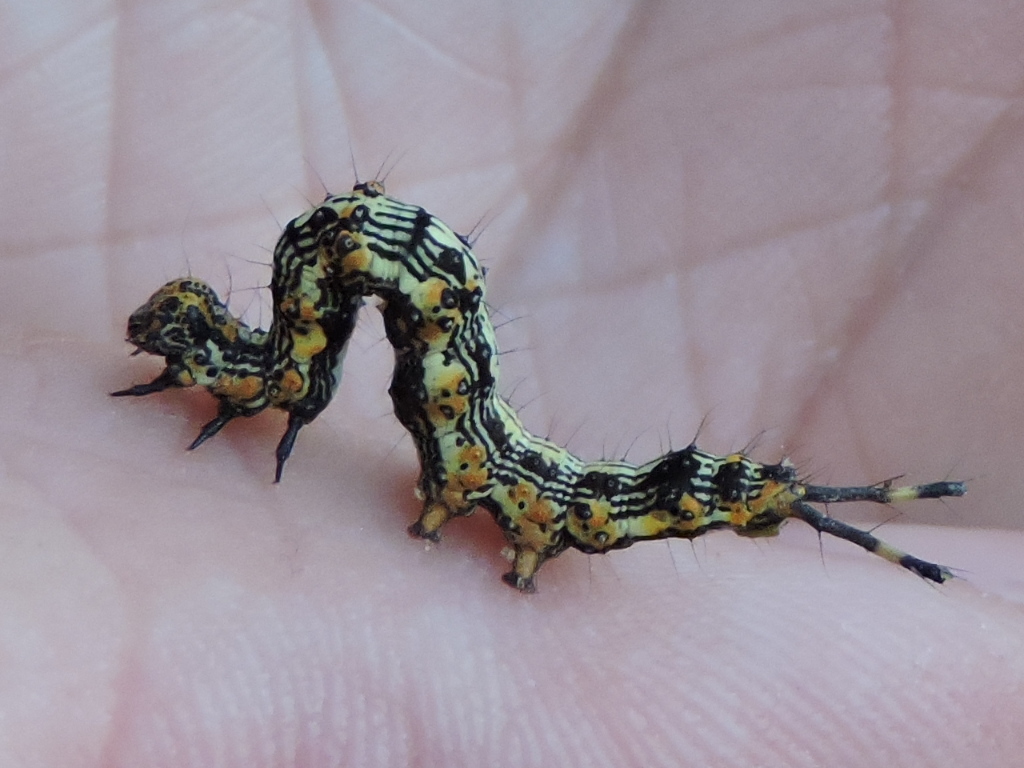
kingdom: Animalia
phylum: Arthropoda
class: Insecta
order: Lepidoptera
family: Erebidae
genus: Selenisa
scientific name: Selenisa sueroides
